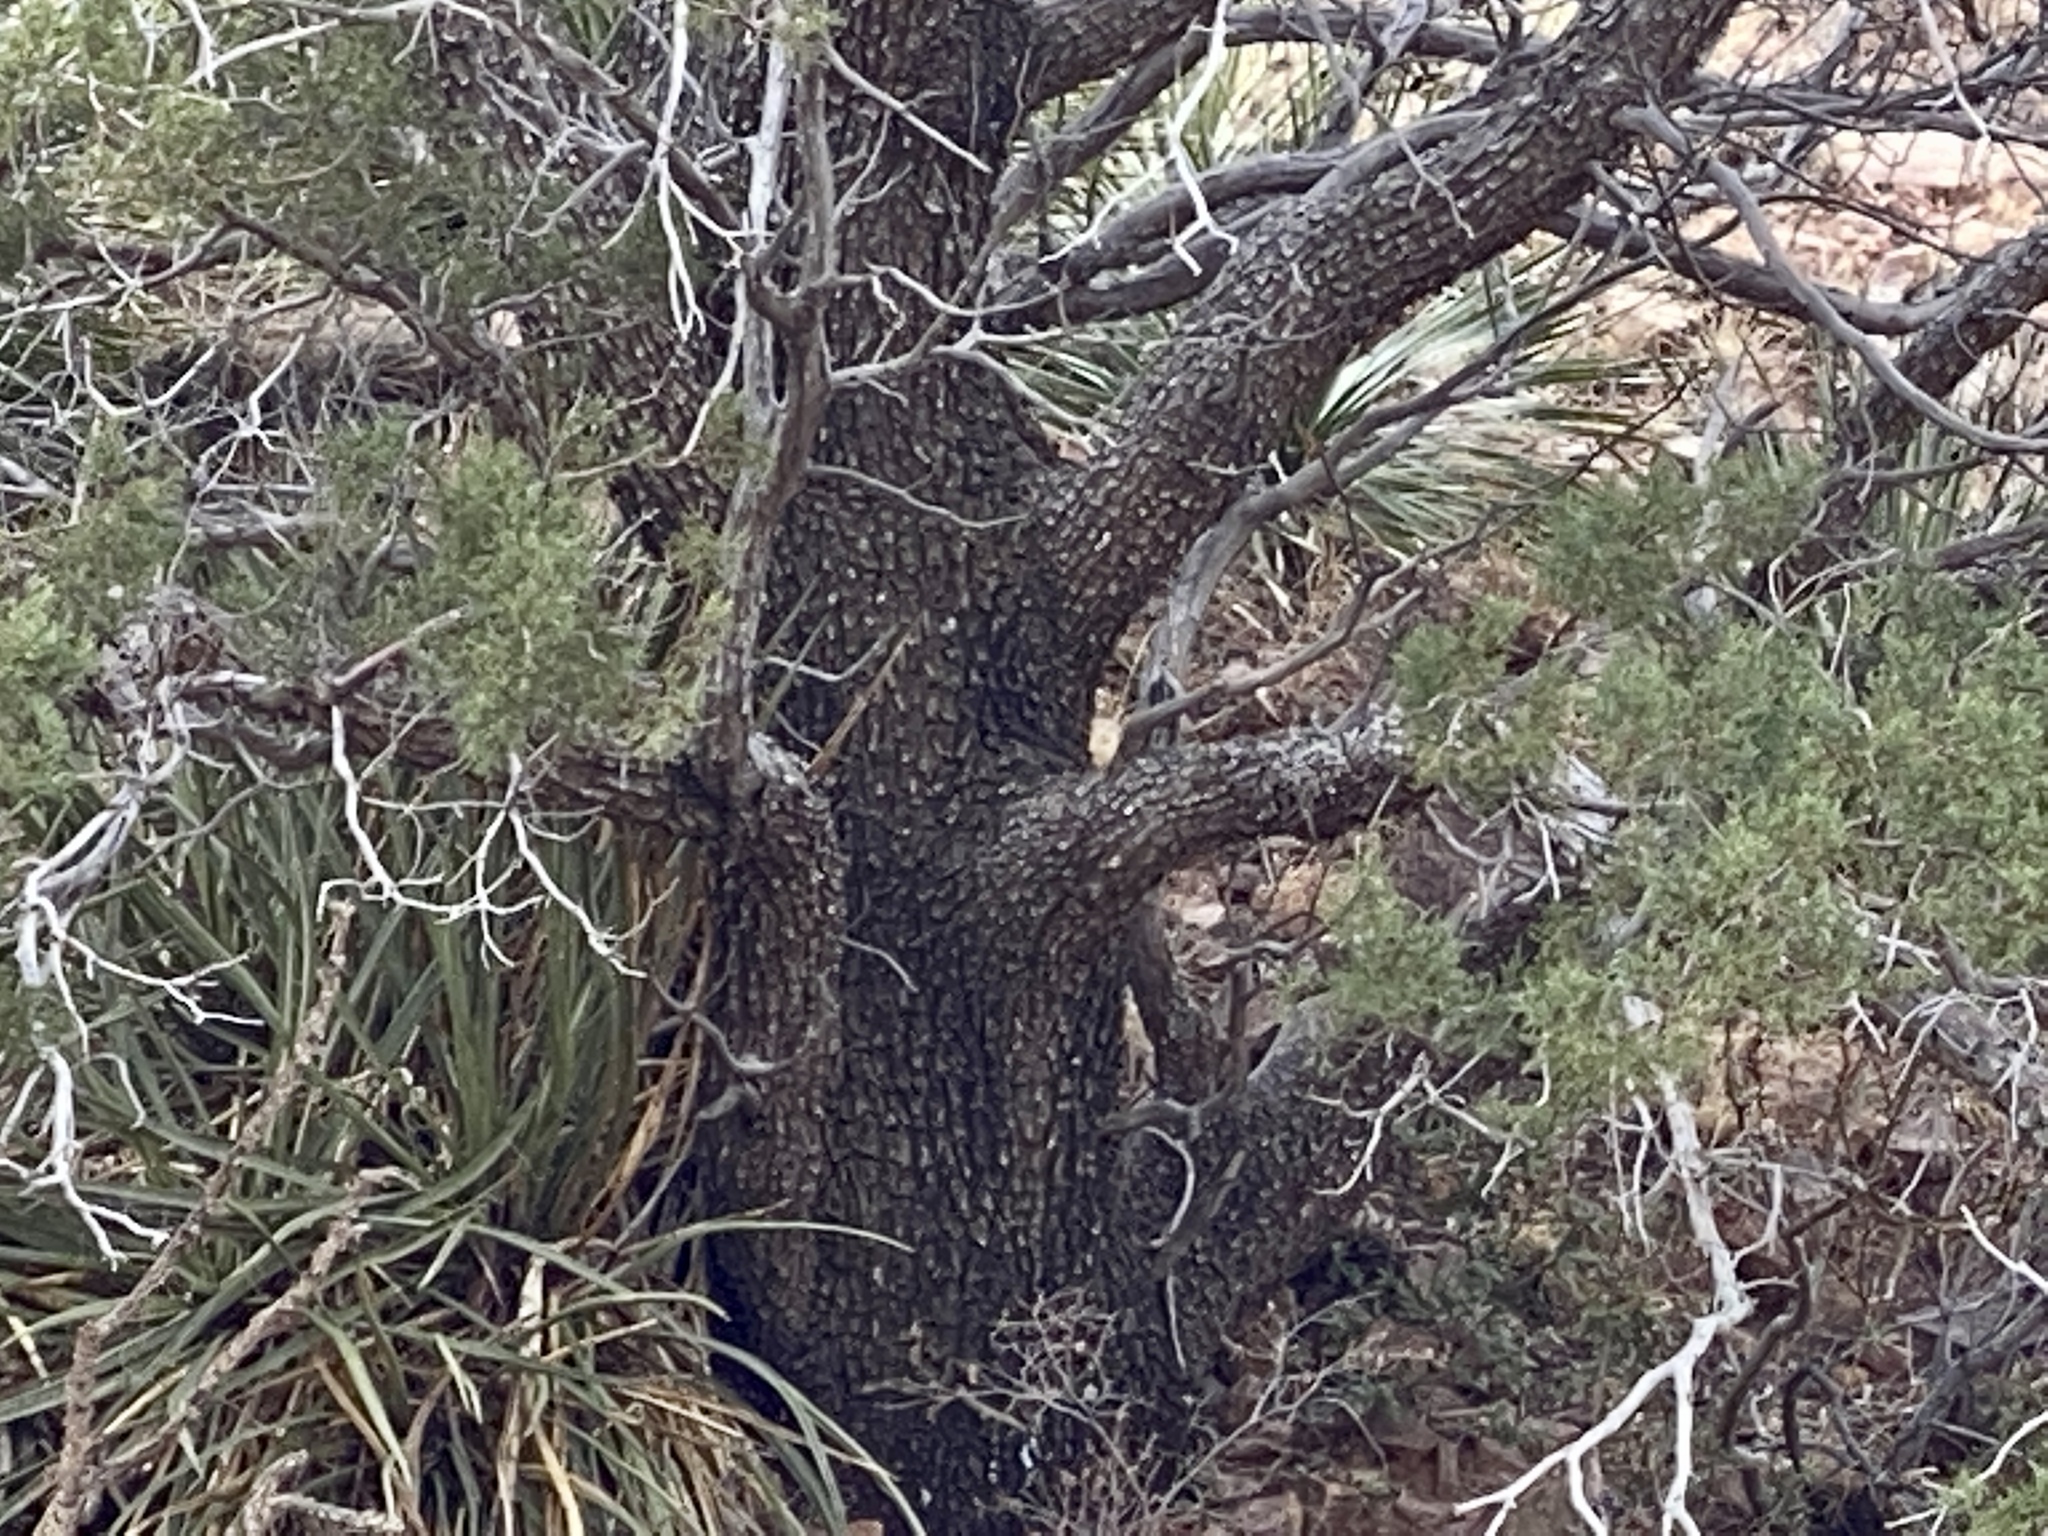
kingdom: Plantae
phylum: Tracheophyta
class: Pinopsida
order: Pinales
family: Cupressaceae
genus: Juniperus
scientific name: Juniperus deppeana
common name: Alligator juniper
